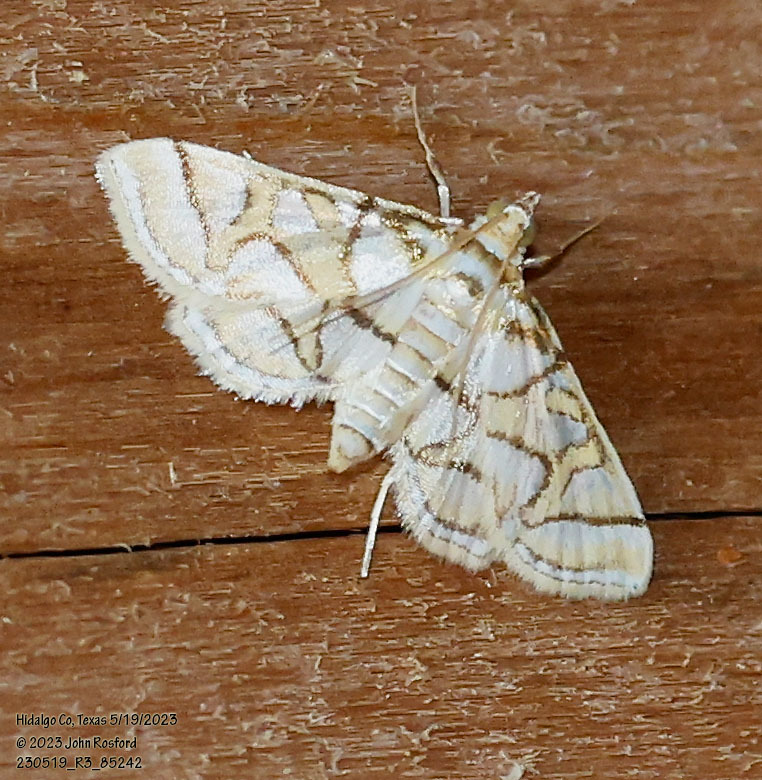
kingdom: Animalia
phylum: Arthropoda
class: Insecta
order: Lepidoptera
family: Crambidae
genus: Pseudopyrausta
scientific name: Pseudopyrausta santatalis
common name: Moth
